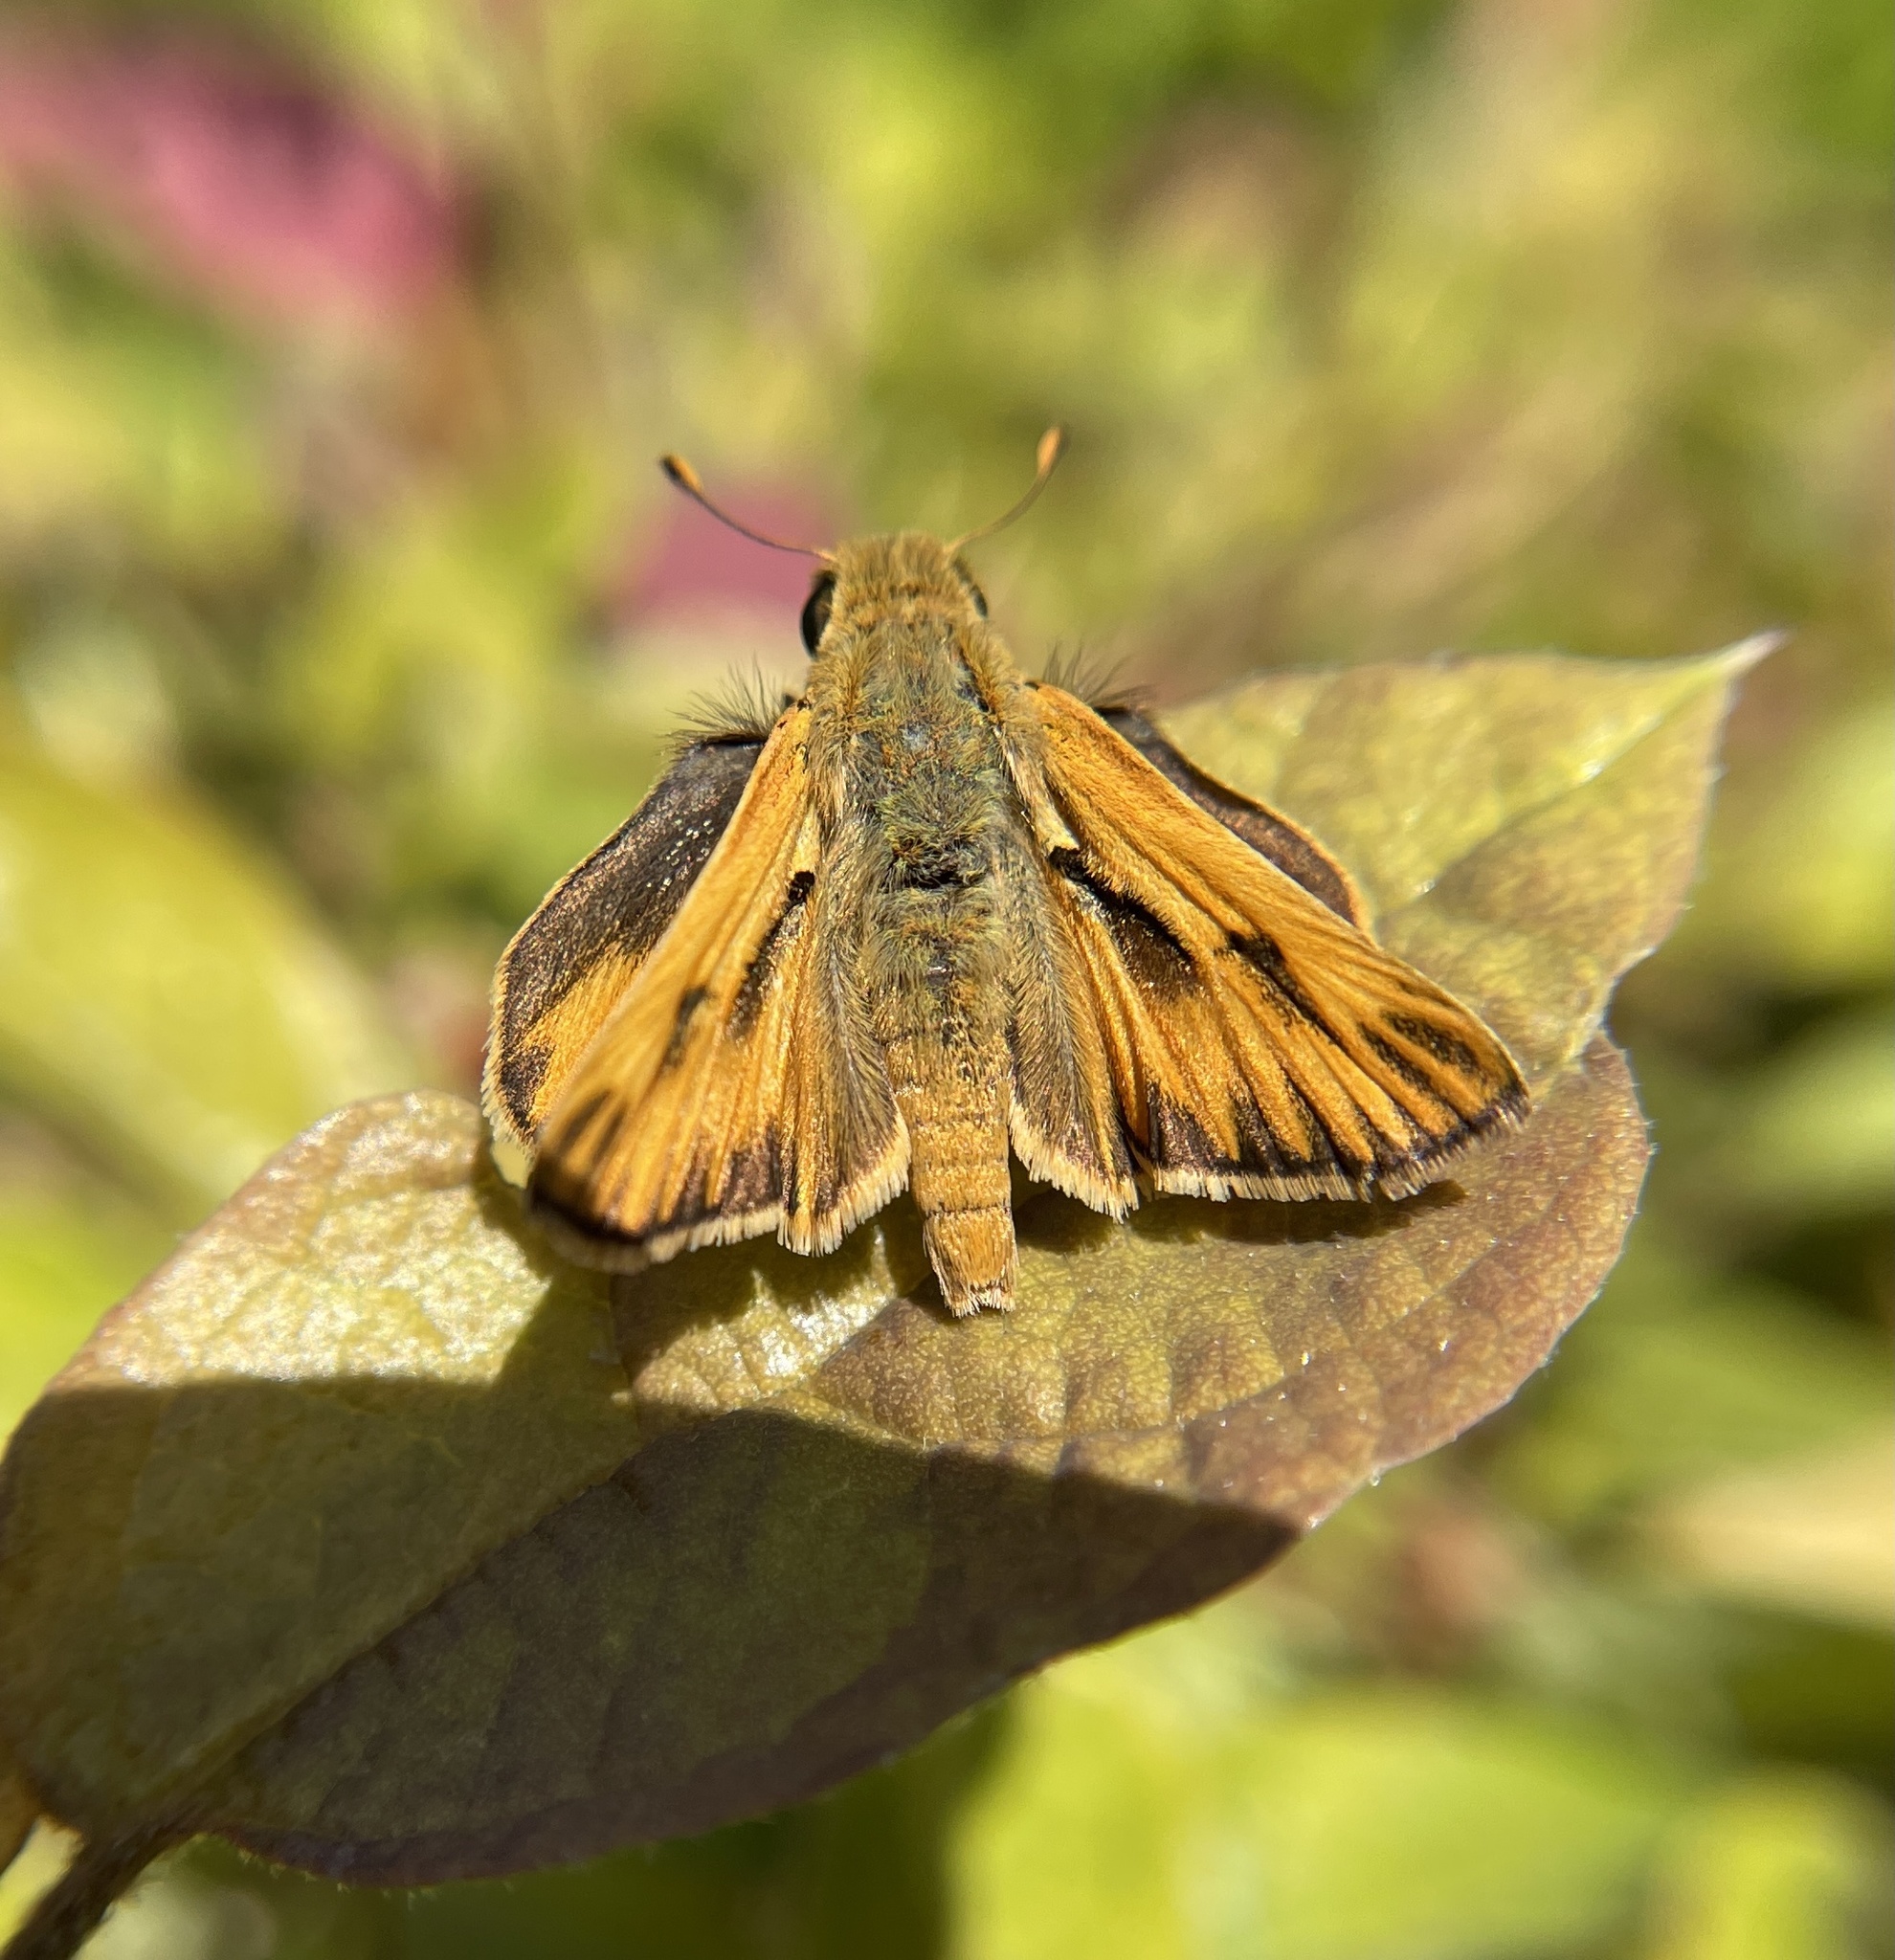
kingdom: Animalia
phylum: Arthropoda
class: Insecta
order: Lepidoptera
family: Hesperiidae
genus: Hylephila
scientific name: Hylephila phyleus
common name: Fiery skipper
